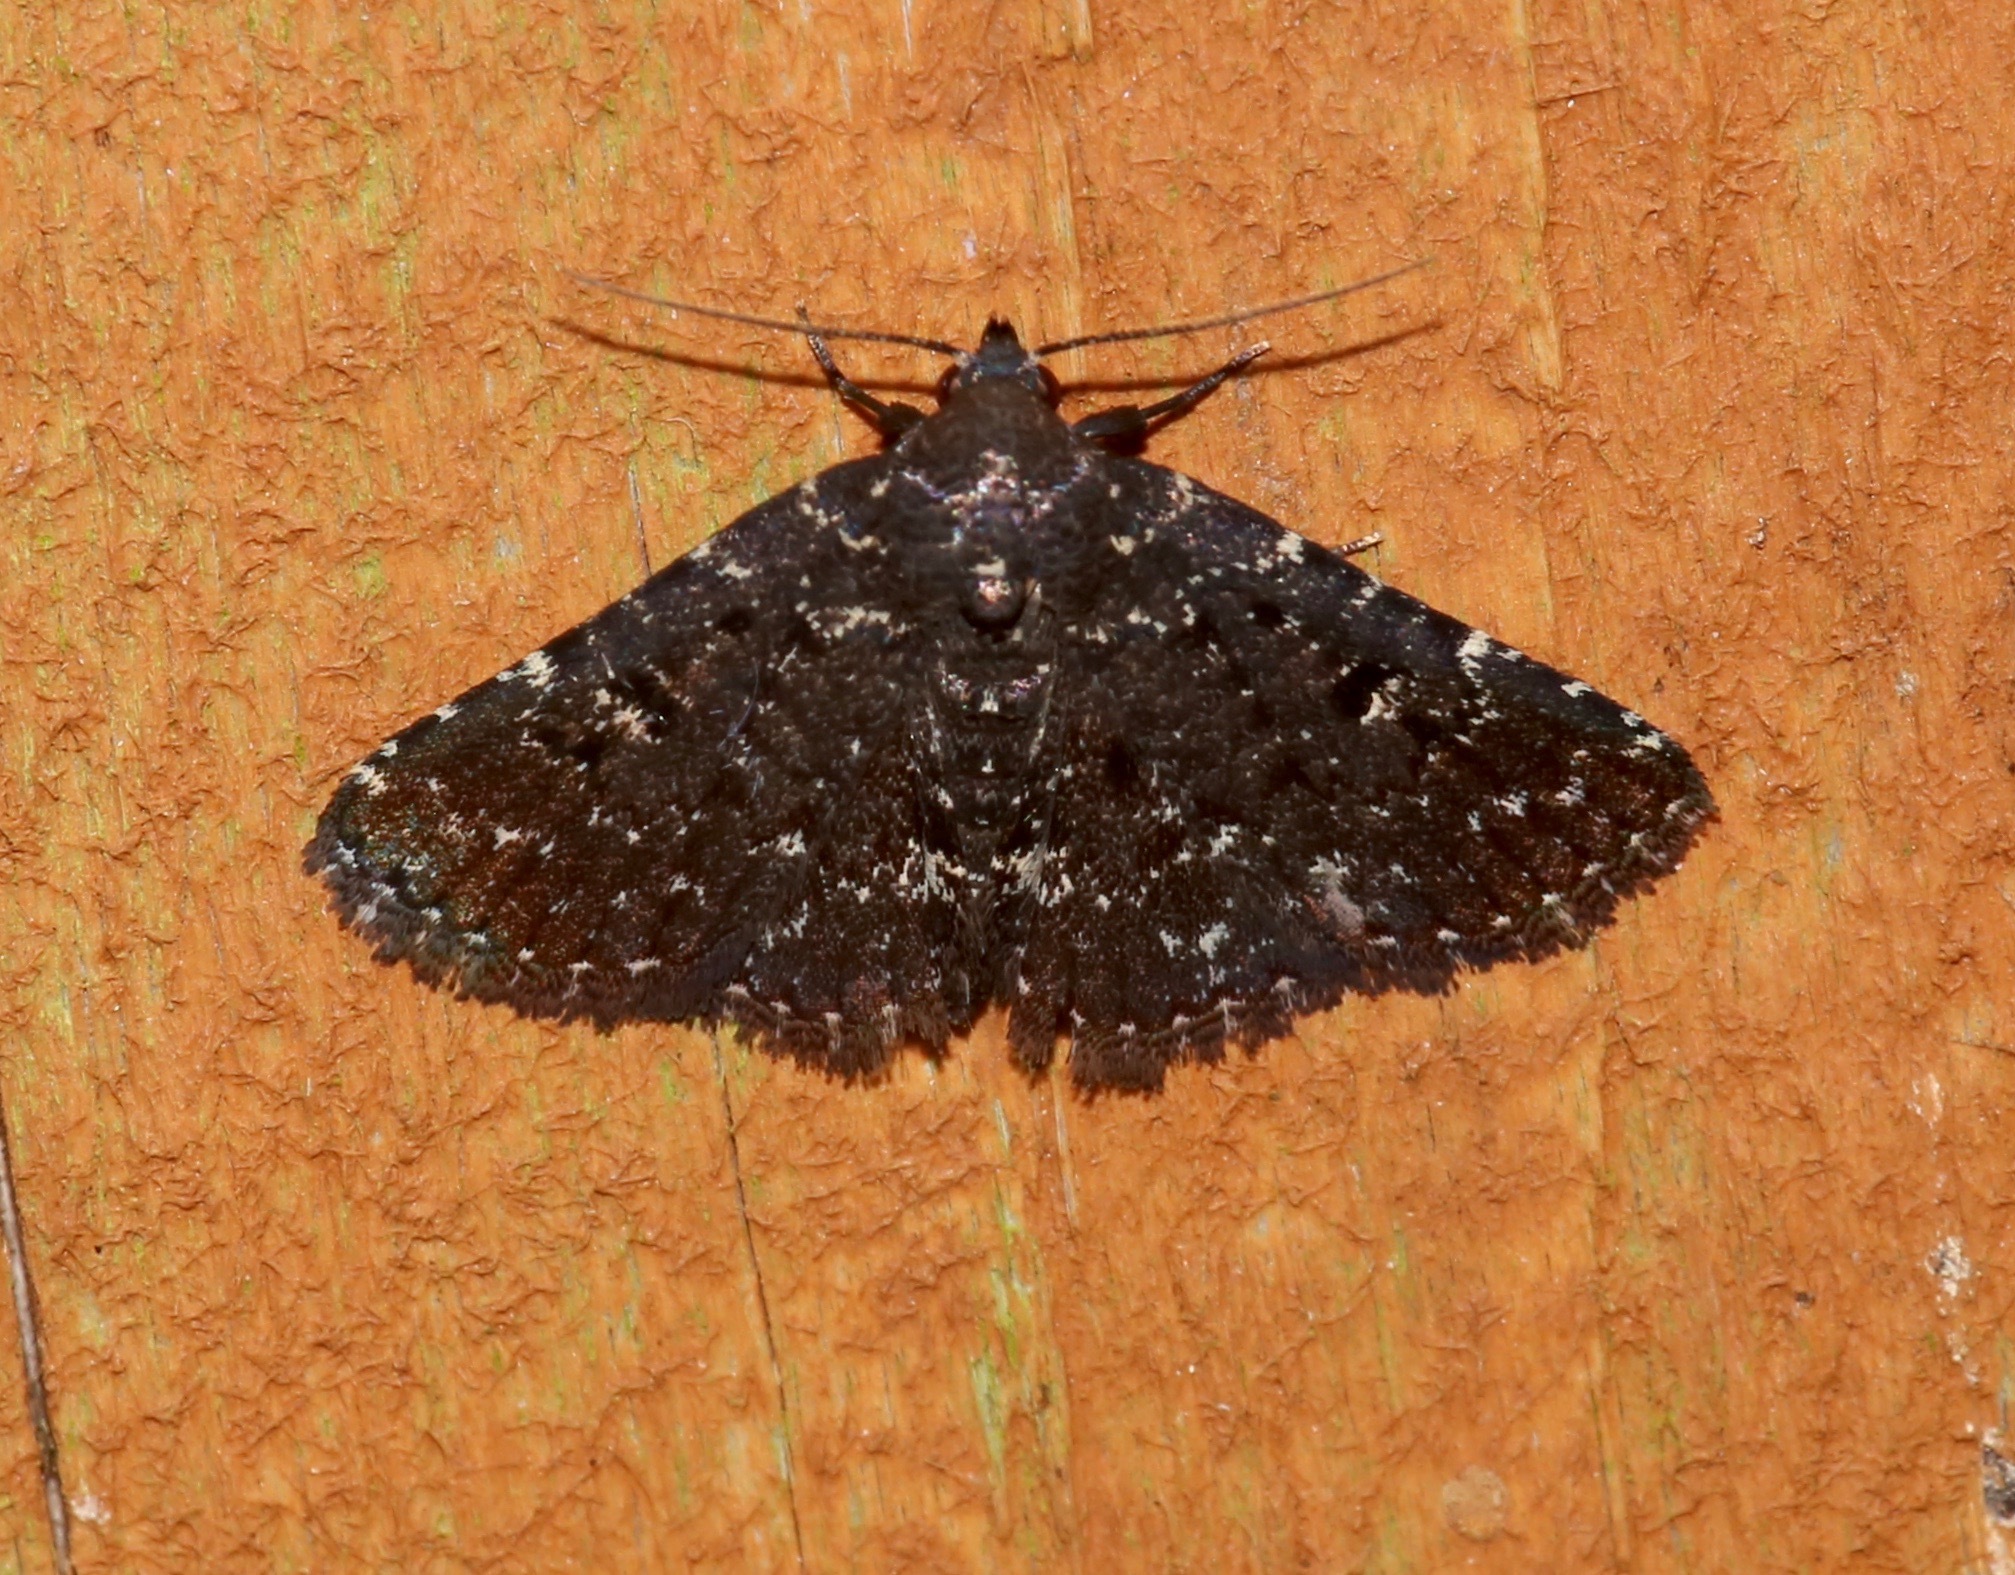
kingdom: Animalia
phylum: Arthropoda
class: Insecta
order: Lepidoptera
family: Erebidae
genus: Metalectra
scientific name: Metalectra tantillus
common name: Black fungus moth
